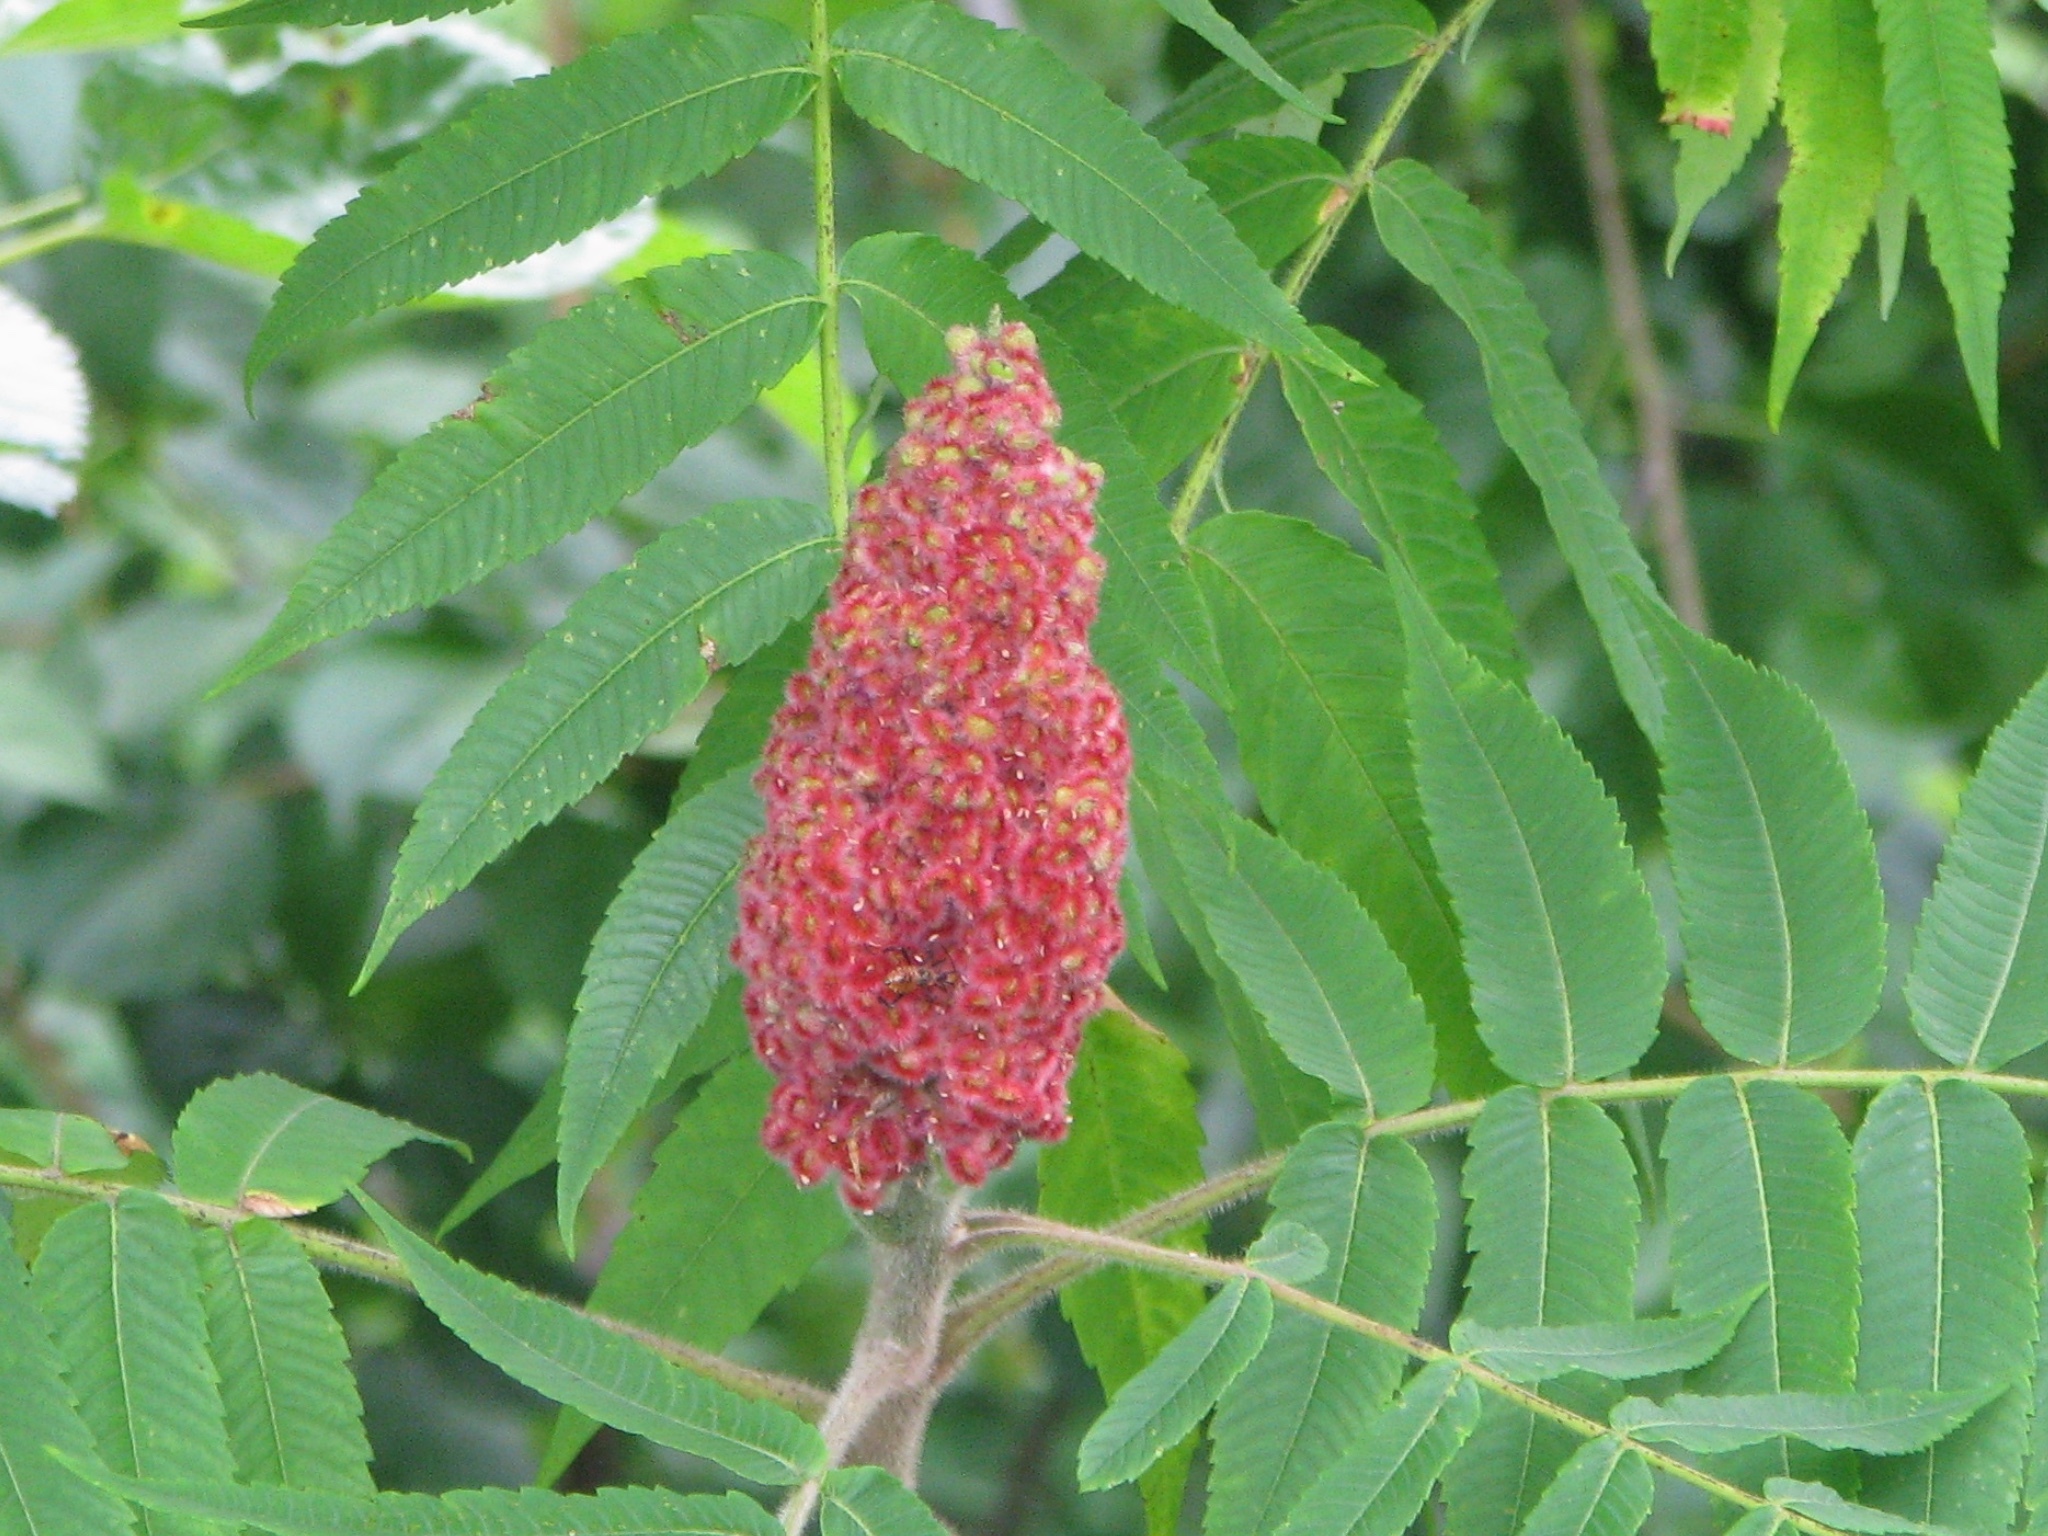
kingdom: Plantae
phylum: Tracheophyta
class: Magnoliopsida
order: Sapindales
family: Anacardiaceae
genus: Rhus
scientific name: Rhus typhina
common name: Staghorn sumac
